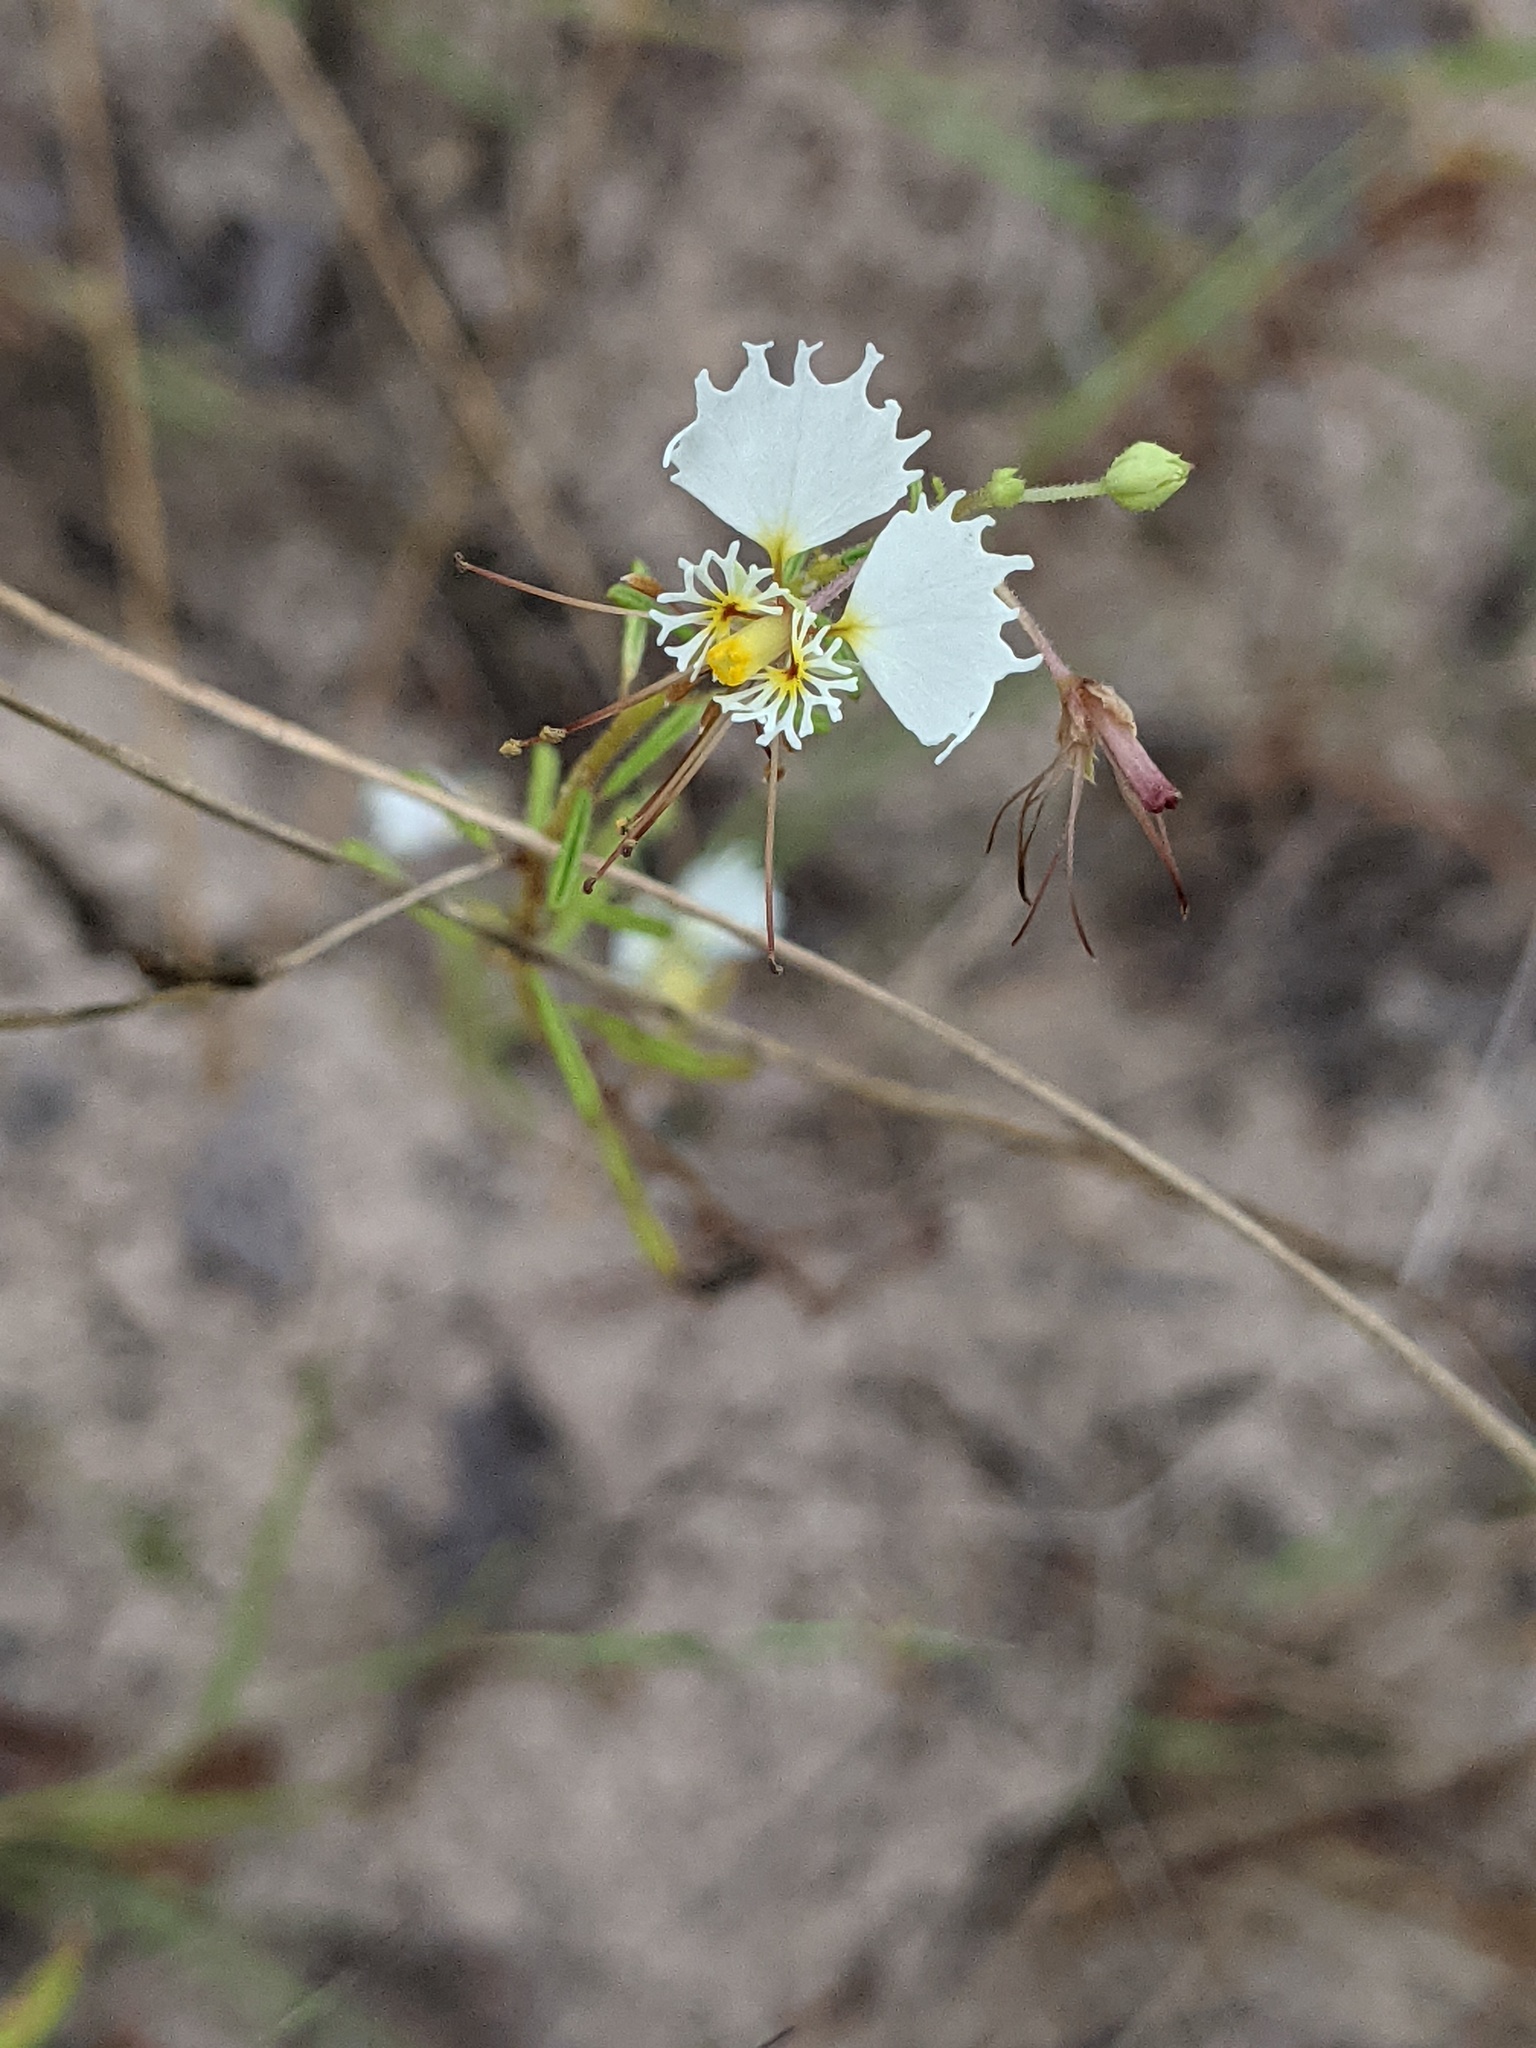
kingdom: Plantae
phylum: Tracheophyta
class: Magnoliopsida
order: Brassicales
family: Cleomaceae
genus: Polanisia
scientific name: Polanisia erosa
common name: Large clammyweed
